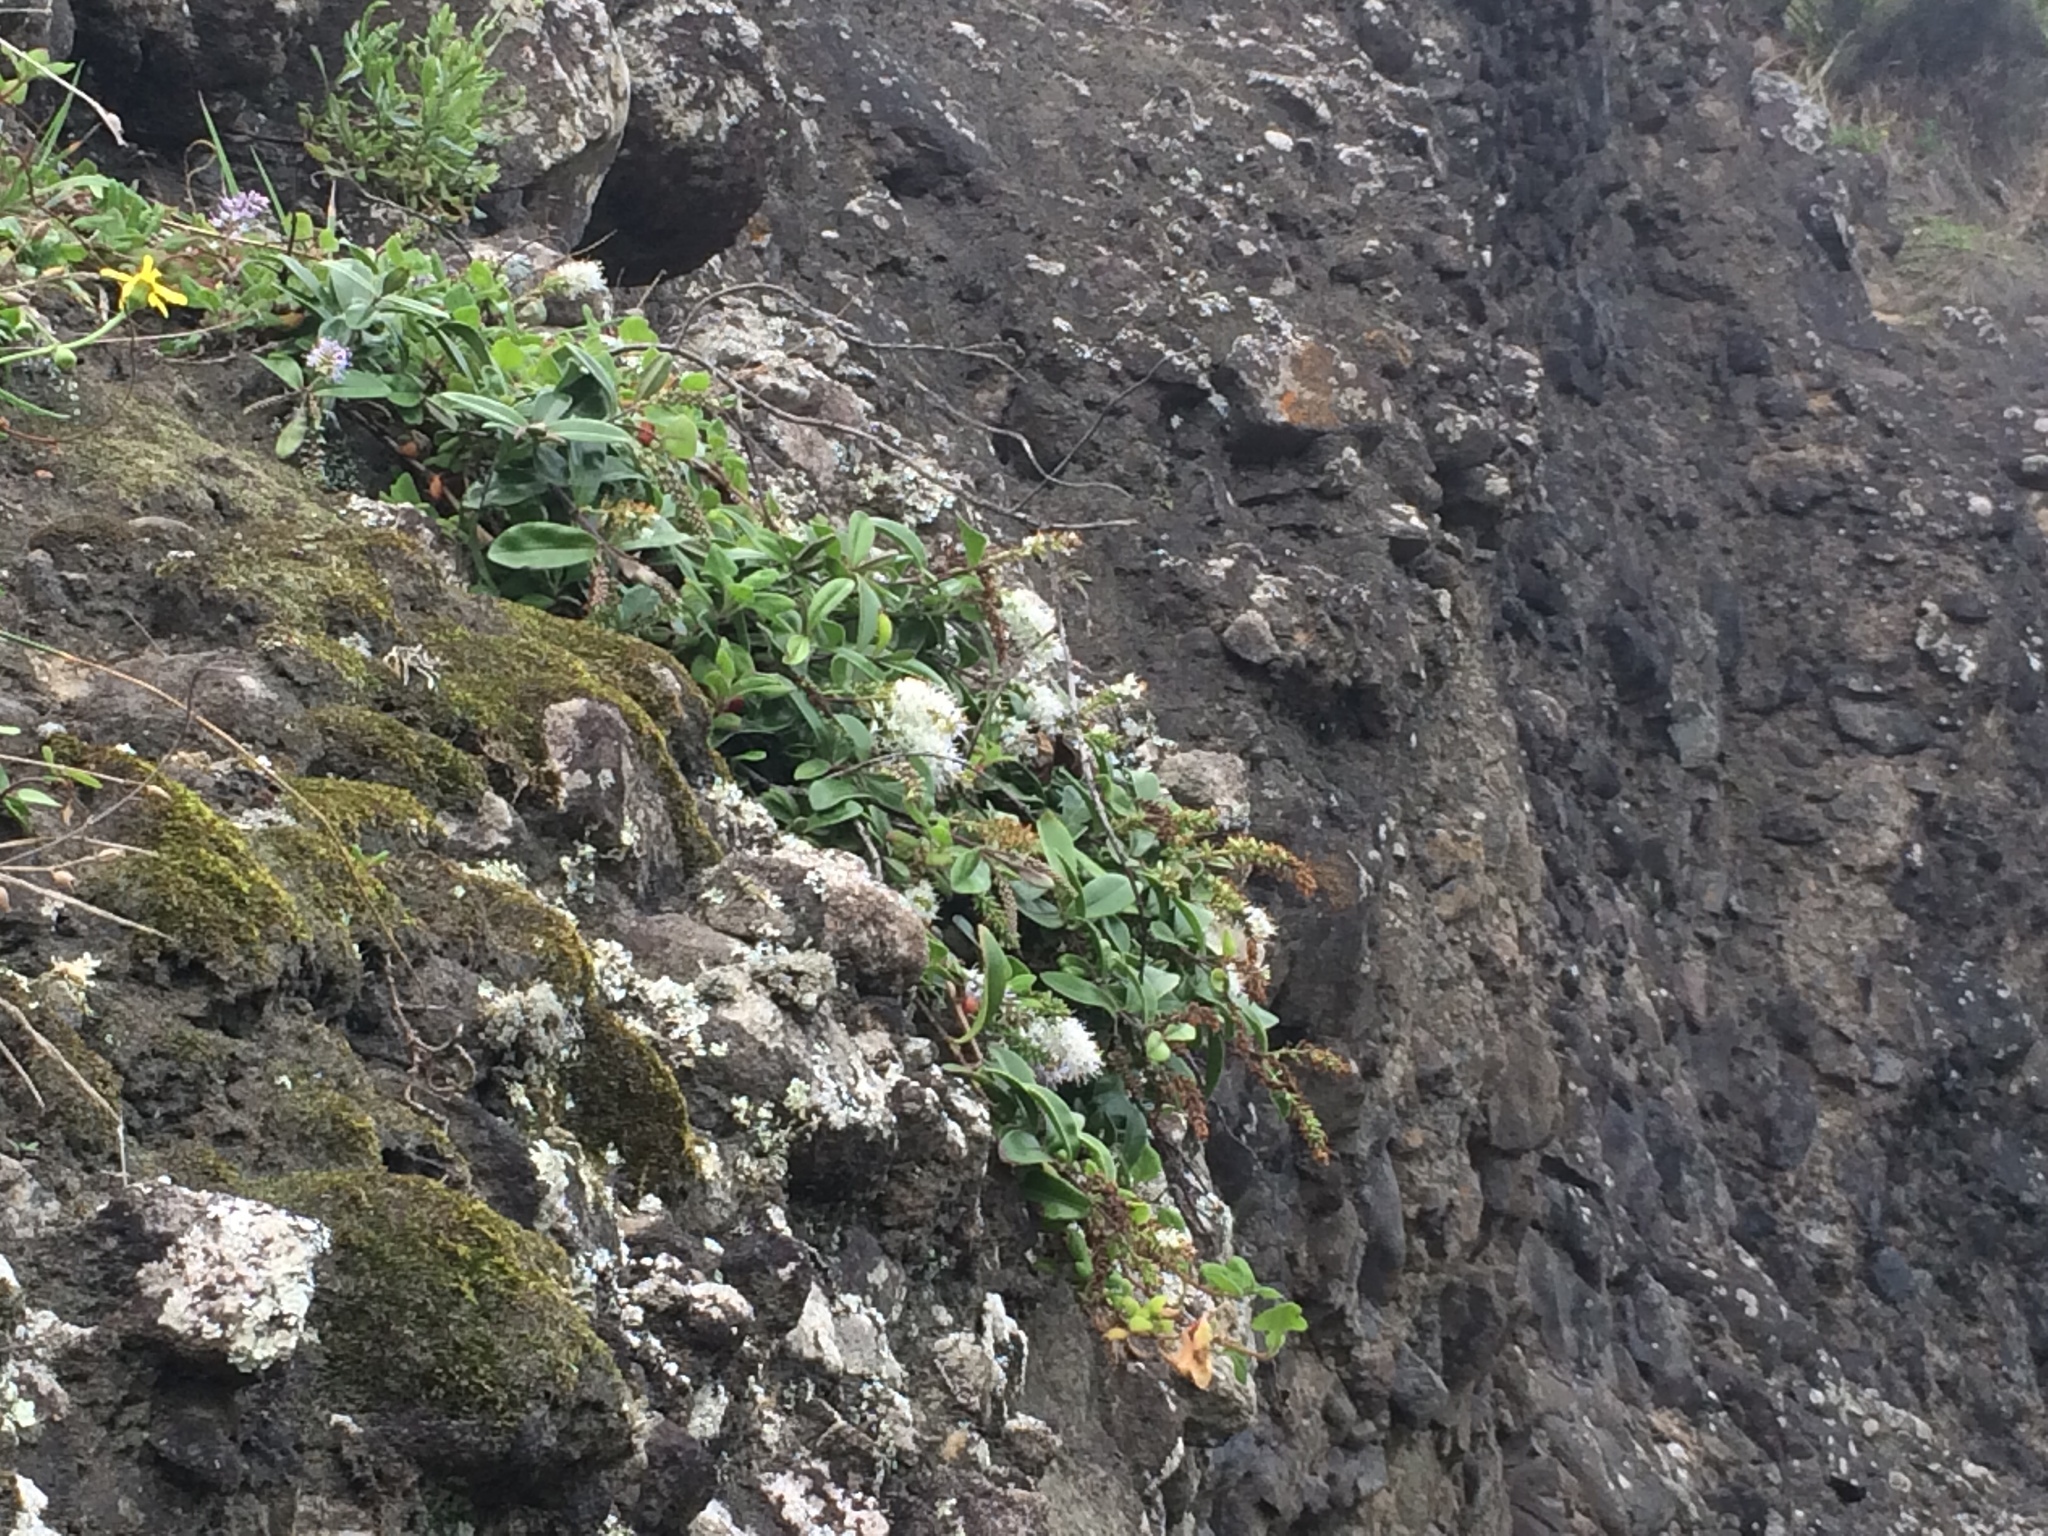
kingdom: Plantae
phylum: Tracheophyta
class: Magnoliopsida
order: Lamiales
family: Plantaginaceae
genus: Veronica
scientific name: Veronica obtusata
